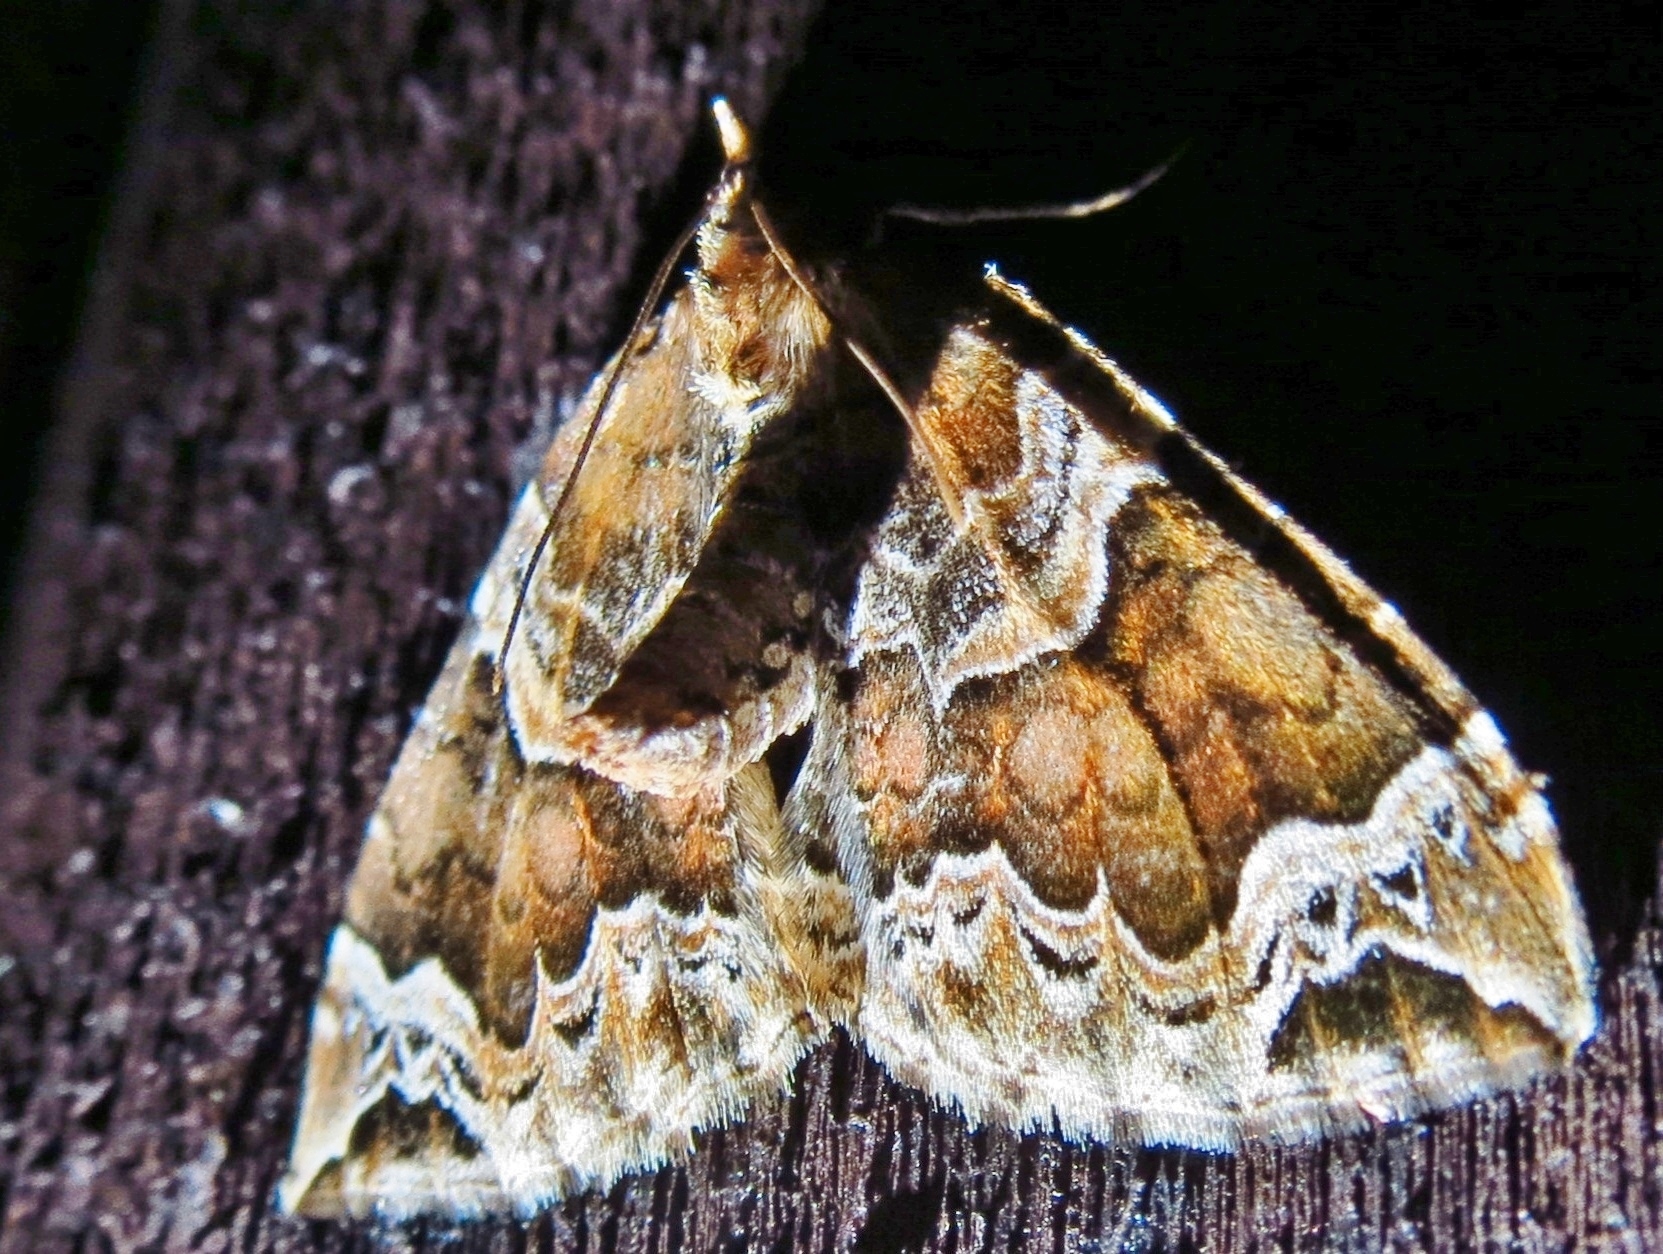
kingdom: Animalia
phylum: Arthropoda
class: Insecta
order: Lepidoptera
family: Geometridae
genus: Eulithis
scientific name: Eulithis prunata
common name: Phoenix
